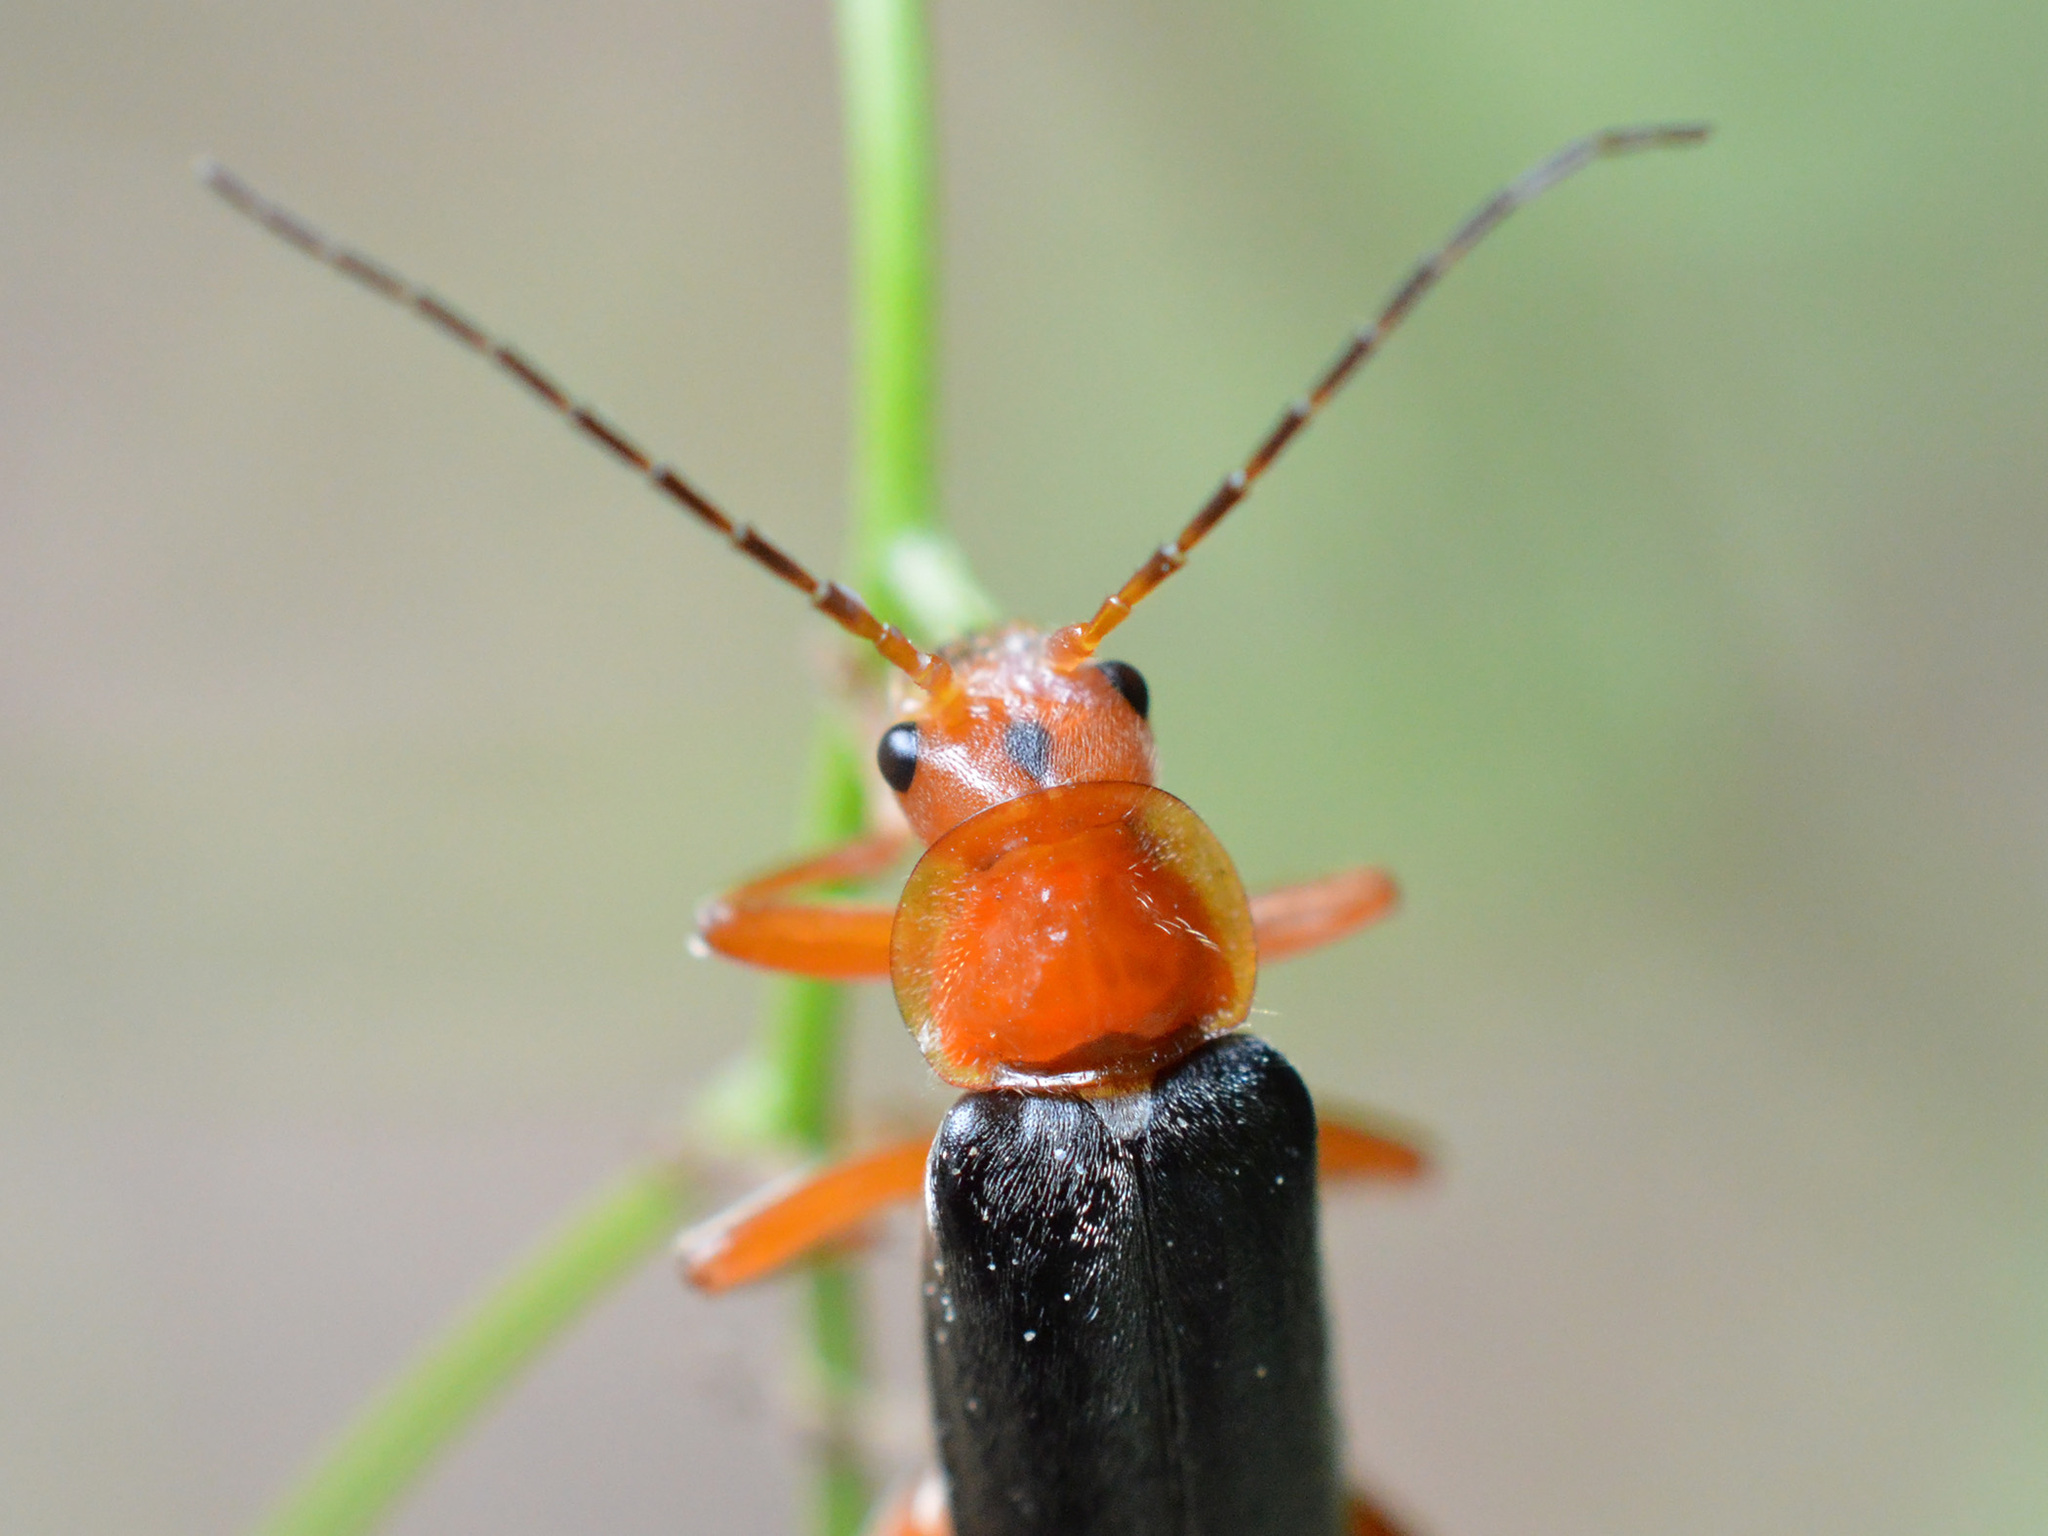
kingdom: Animalia
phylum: Arthropoda
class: Insecta
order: Coleoptera
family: Cantharidae
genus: Cantharis
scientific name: Cantharis livida
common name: Livid soldier beetle
